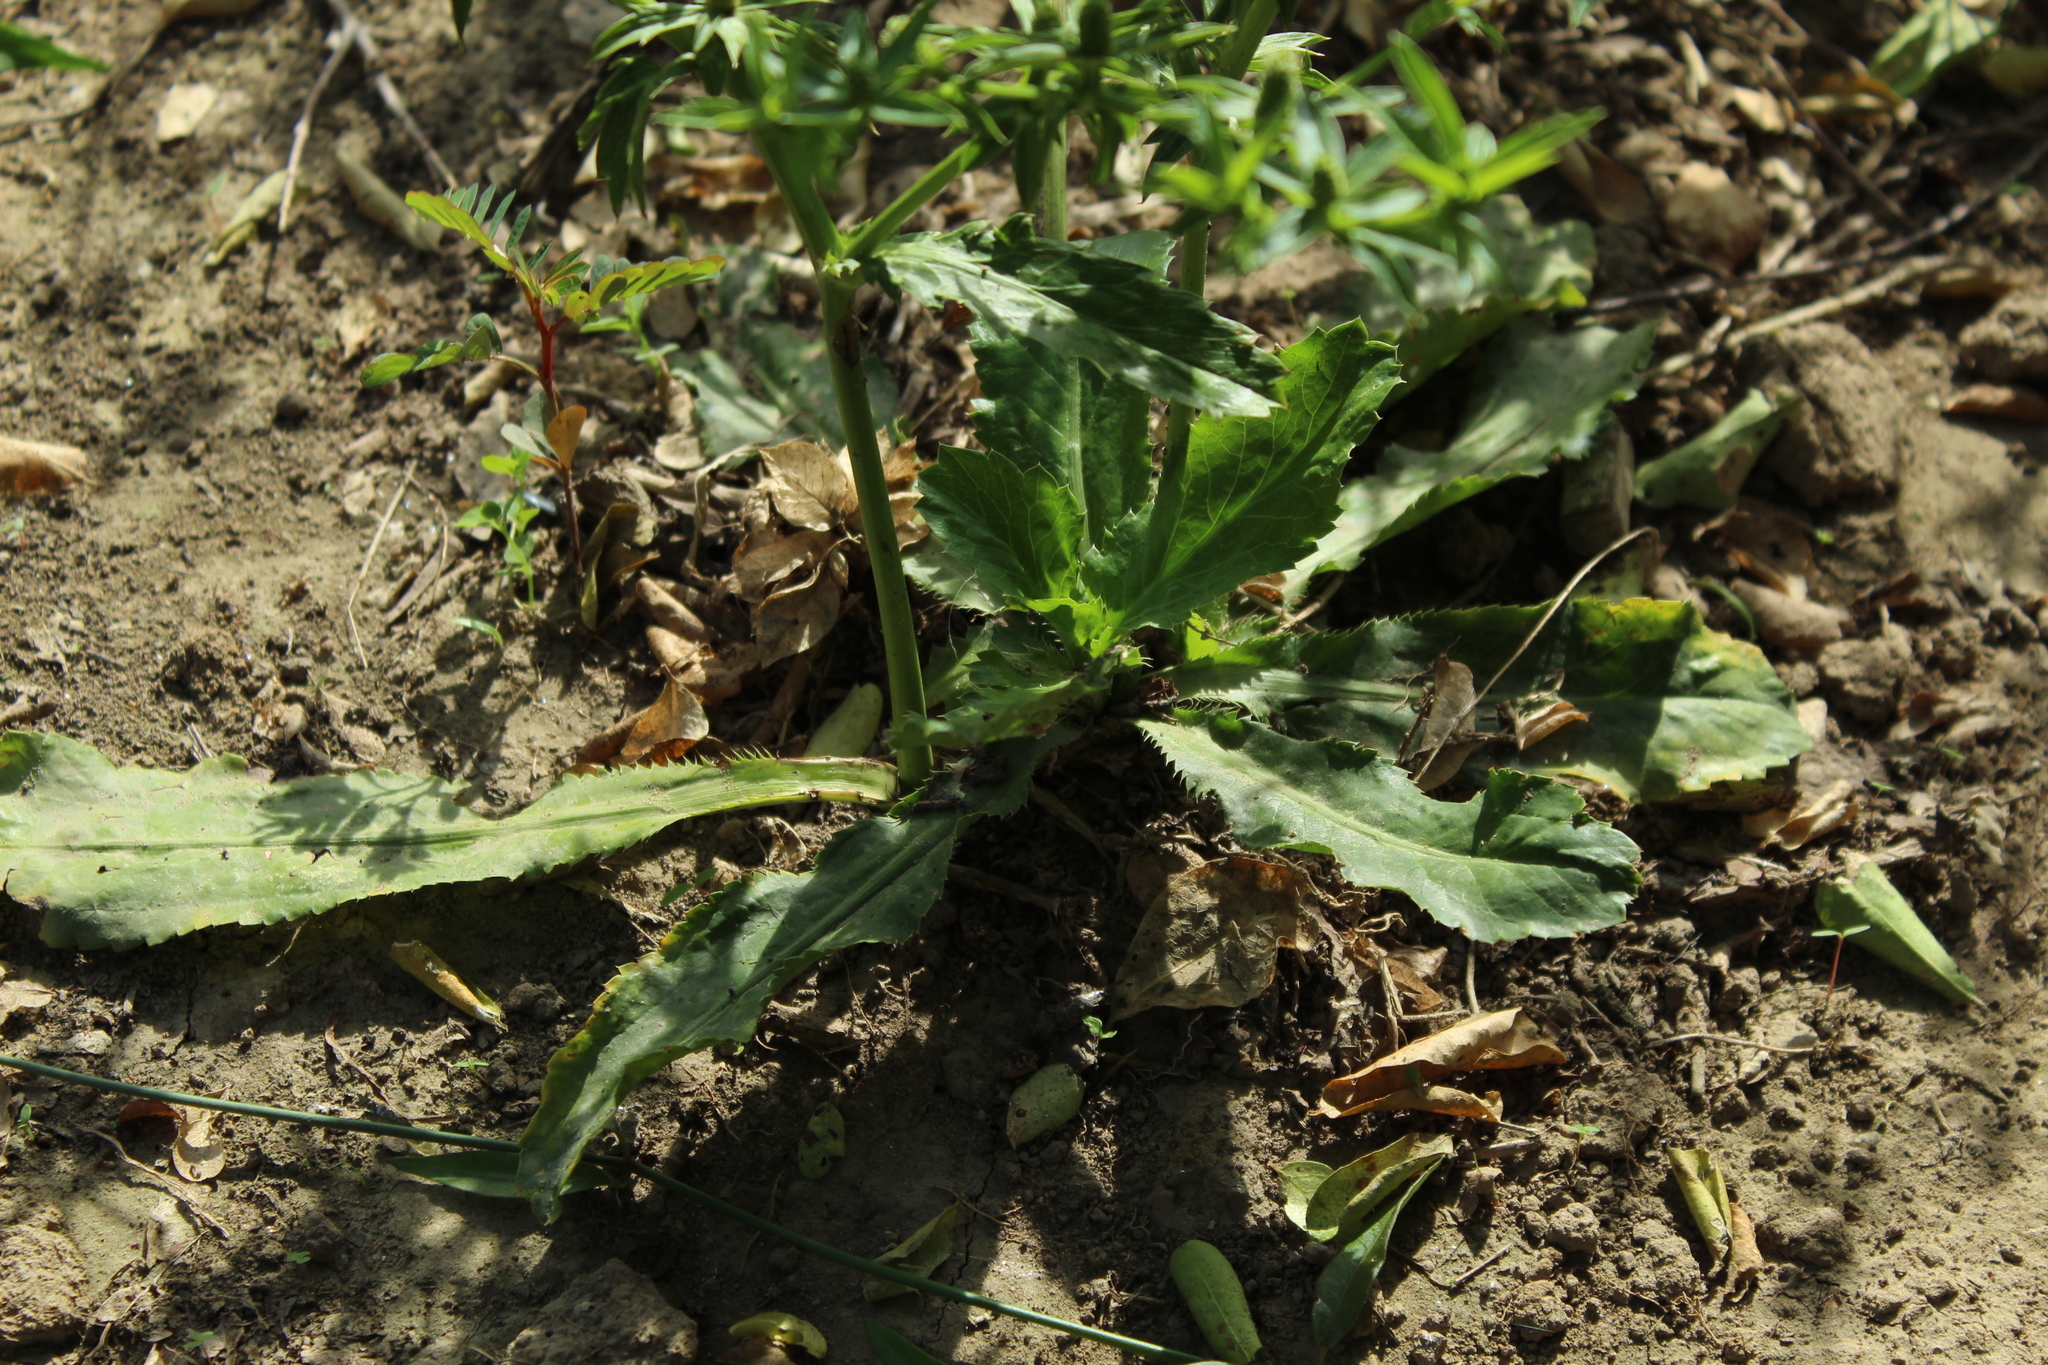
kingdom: Plantae
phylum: Tracheophyta
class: Magnoliopsida
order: Apiales
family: Apiaceae
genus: Eryngium
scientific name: Eryngium foetidum
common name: Fitweed
